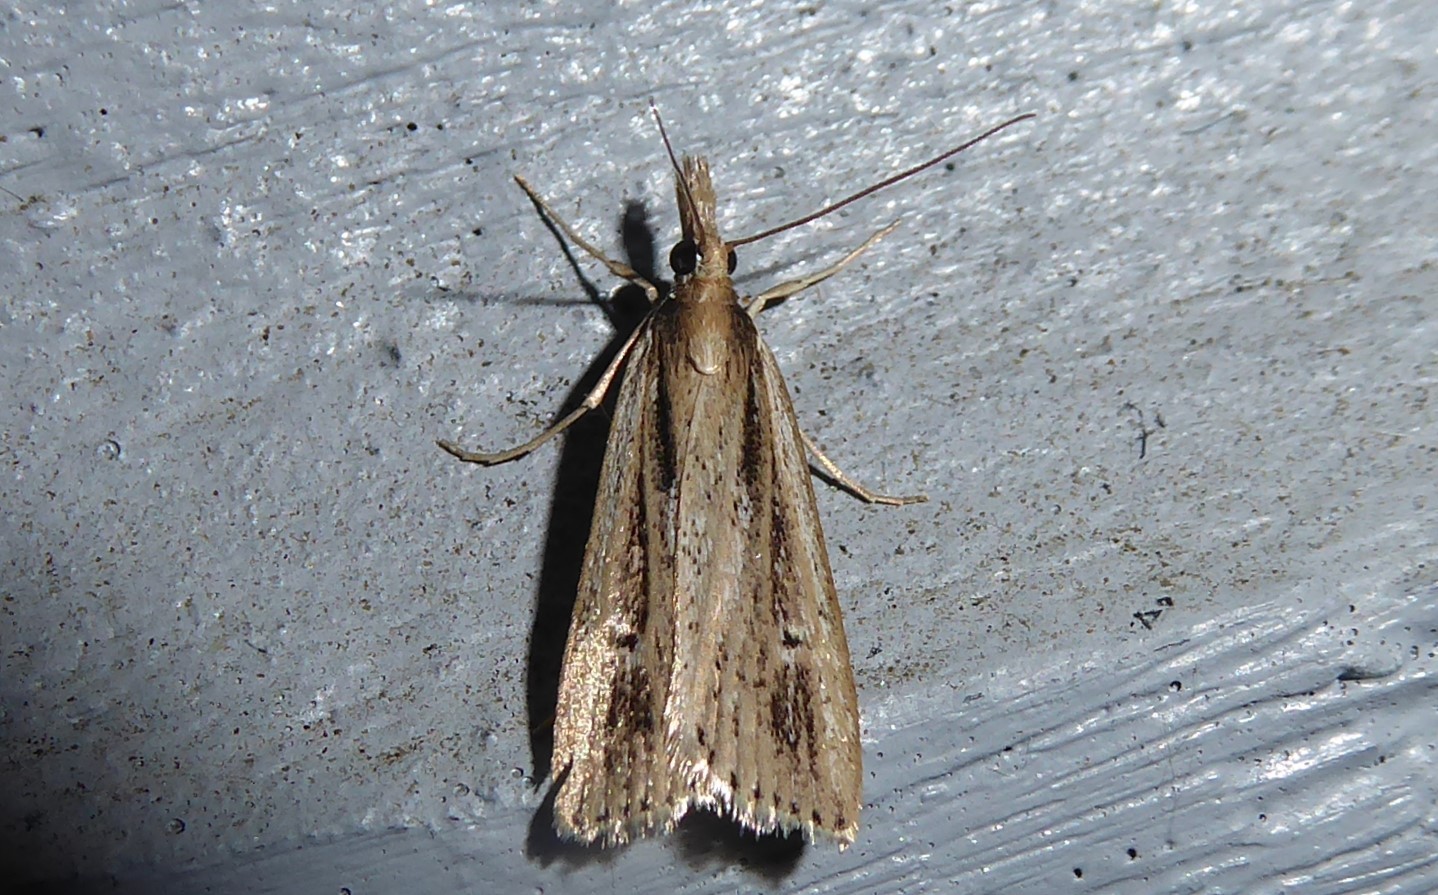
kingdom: Animalia
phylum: Arthropoda
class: Insecta
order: Lepidoptera
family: Crambidae
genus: Eudonia
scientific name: Eudonia sabulosella
